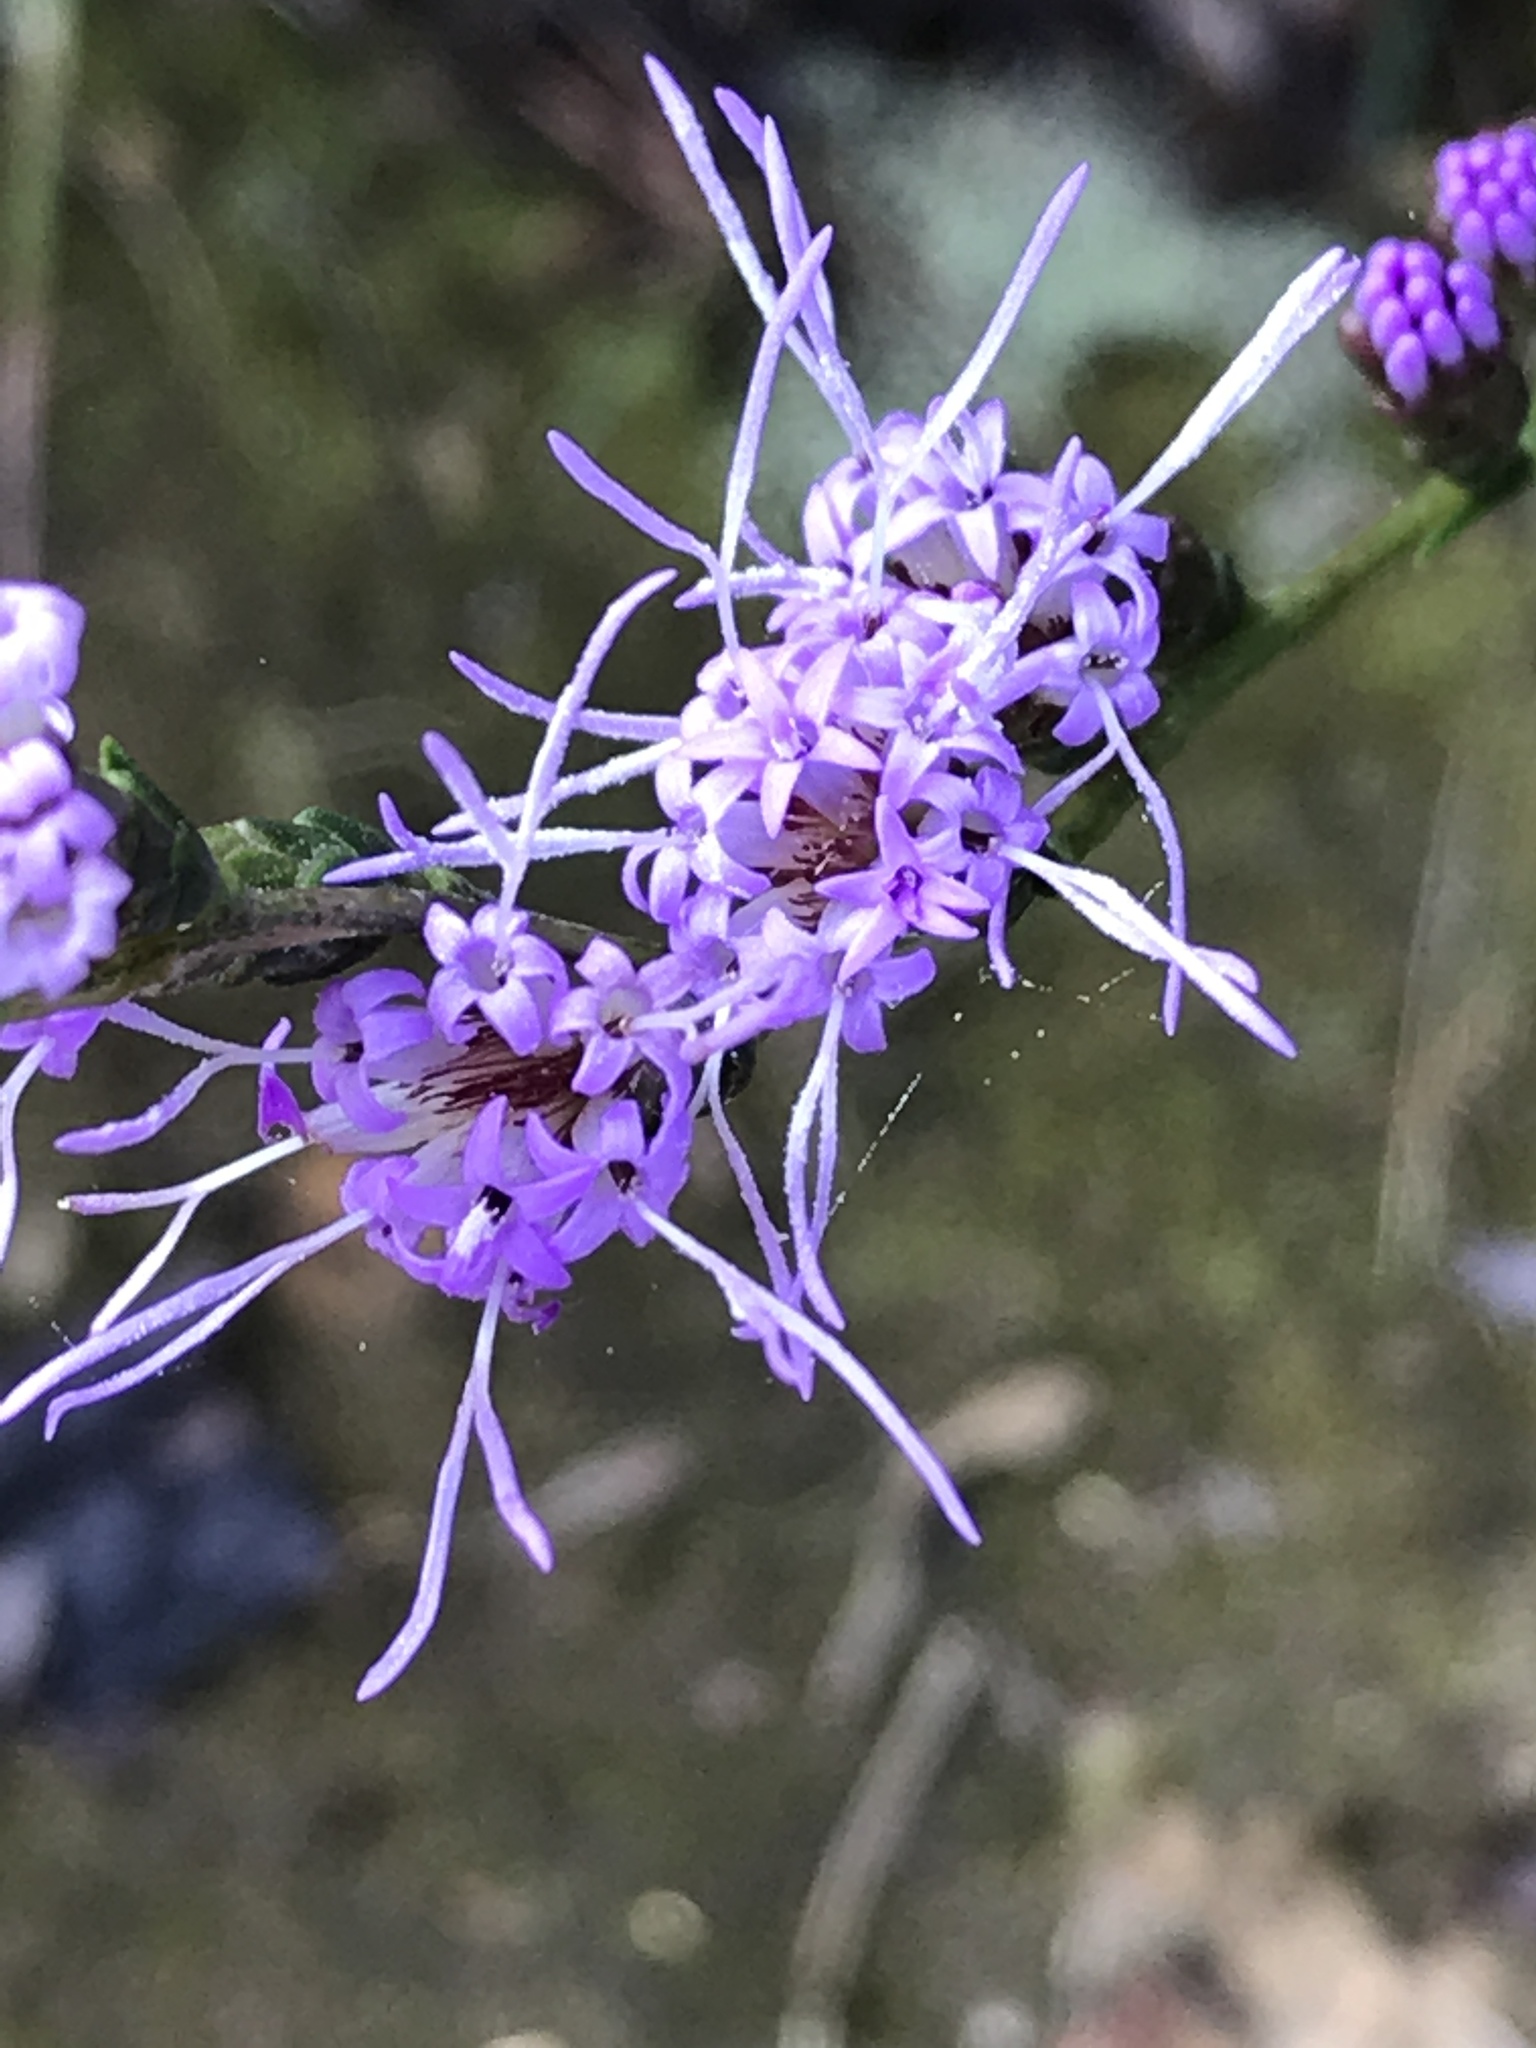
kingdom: Plantae
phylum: Tracheophyta
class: Magnoliopsida
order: Asterales
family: Asteraceae
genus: Liatris
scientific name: Liatris pilosa
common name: Grass-leaf gayfeather
